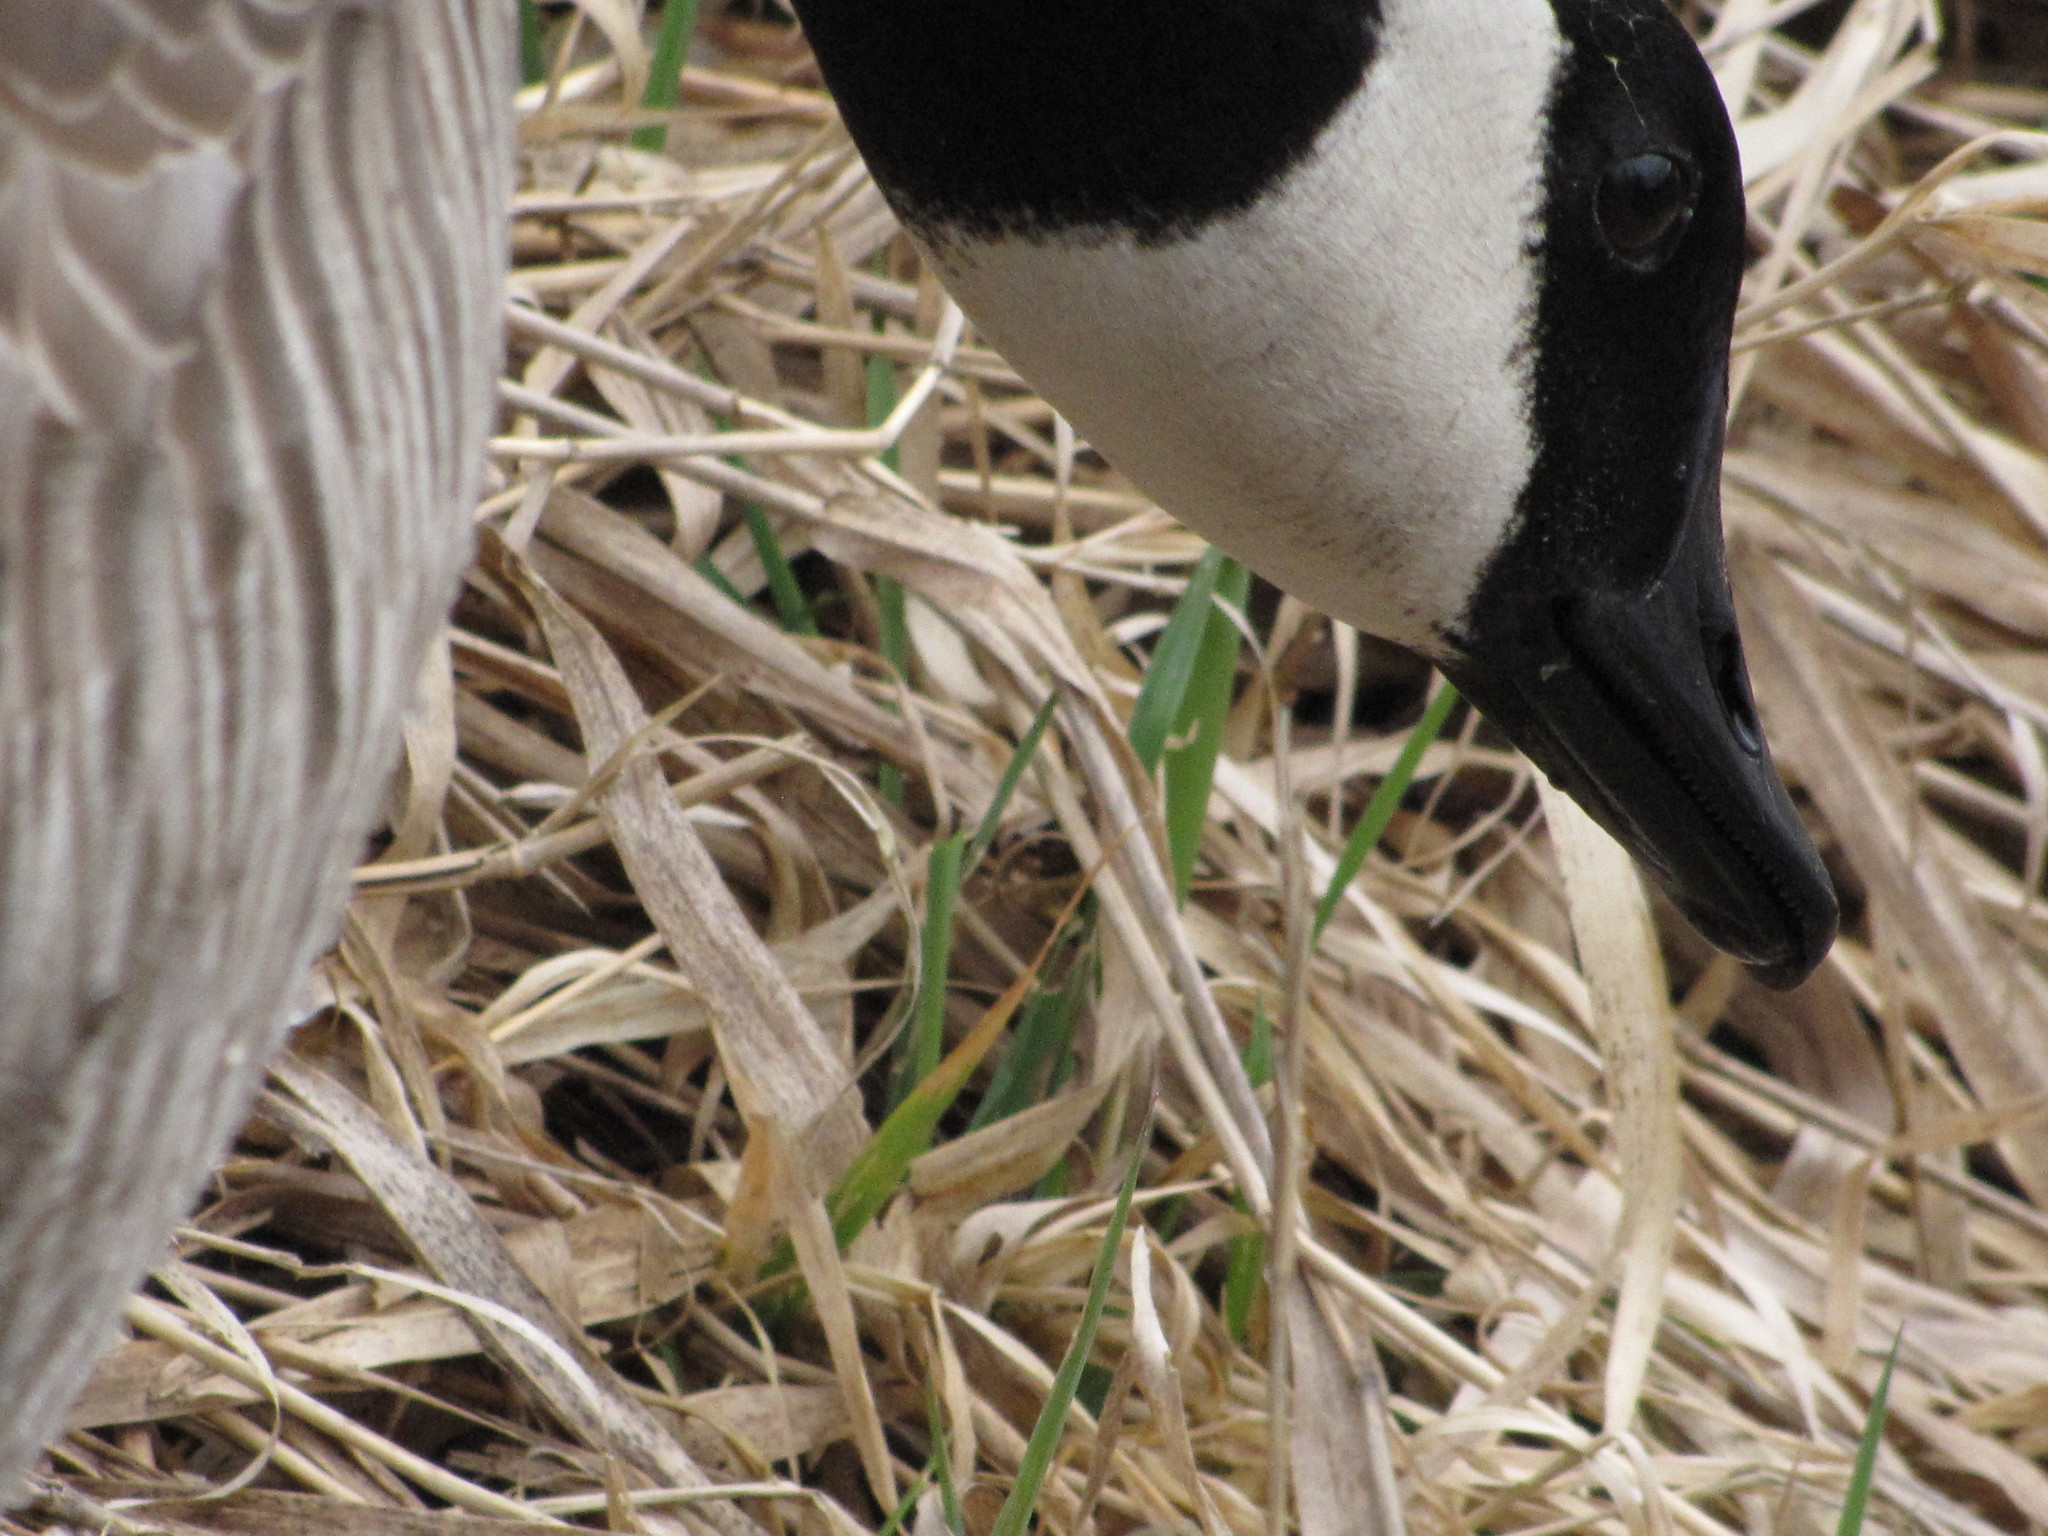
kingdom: Animalia
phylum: Chordata
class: Aves
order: Anseriformes
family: Anatidae
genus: Branta
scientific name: Branta canadensis
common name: Canada goose
